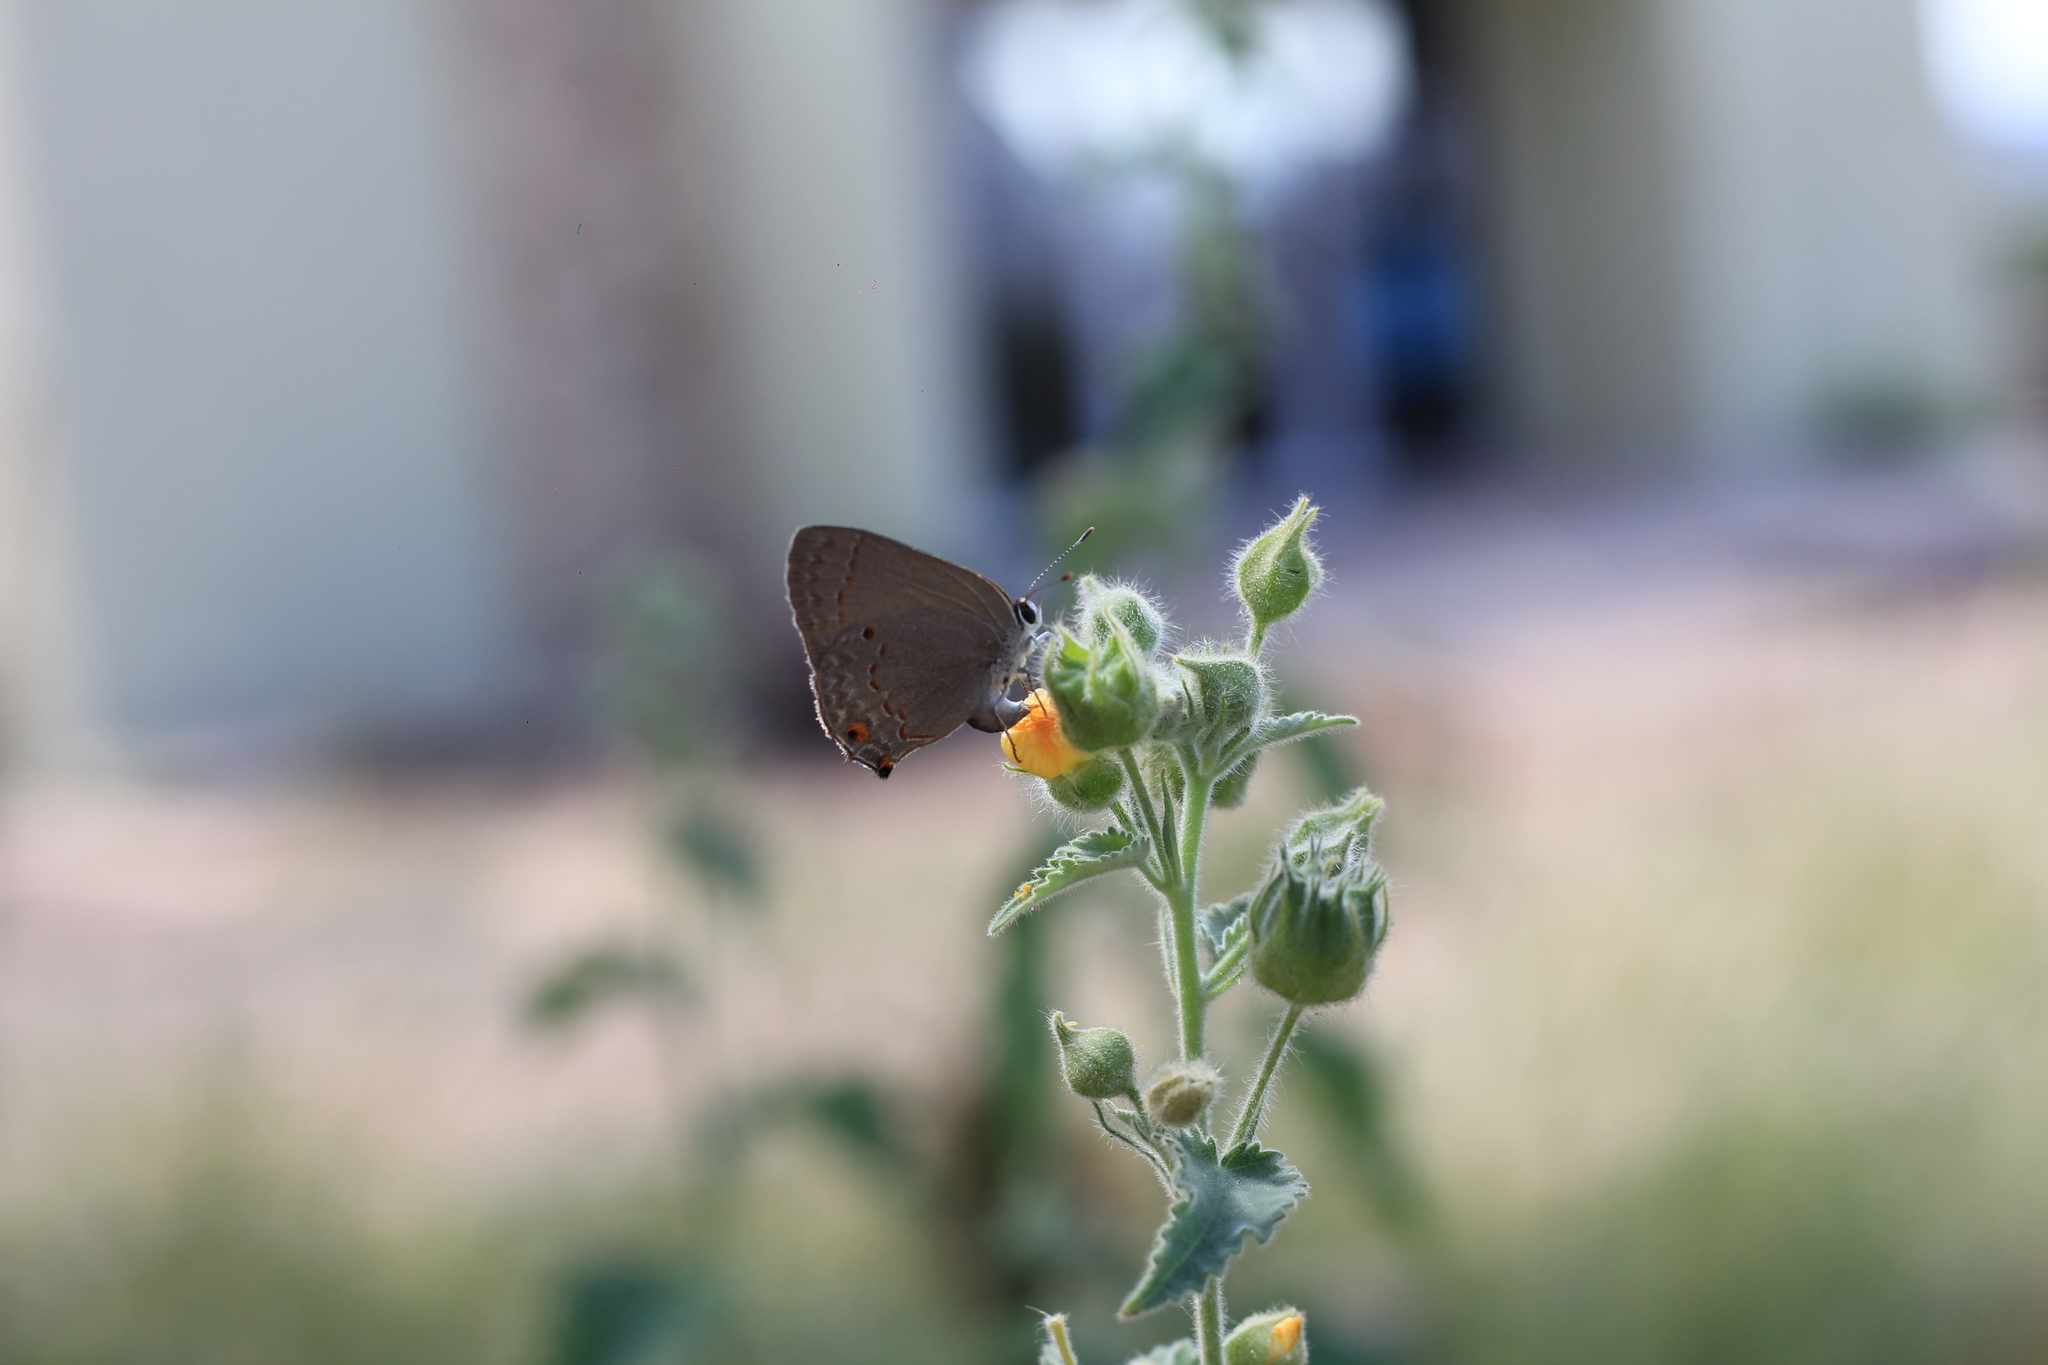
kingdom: Animalia
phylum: Arthropoda
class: Insecta
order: Lepidoptera
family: Lycaenidae
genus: Thecla
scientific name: Thecla rufofusca
